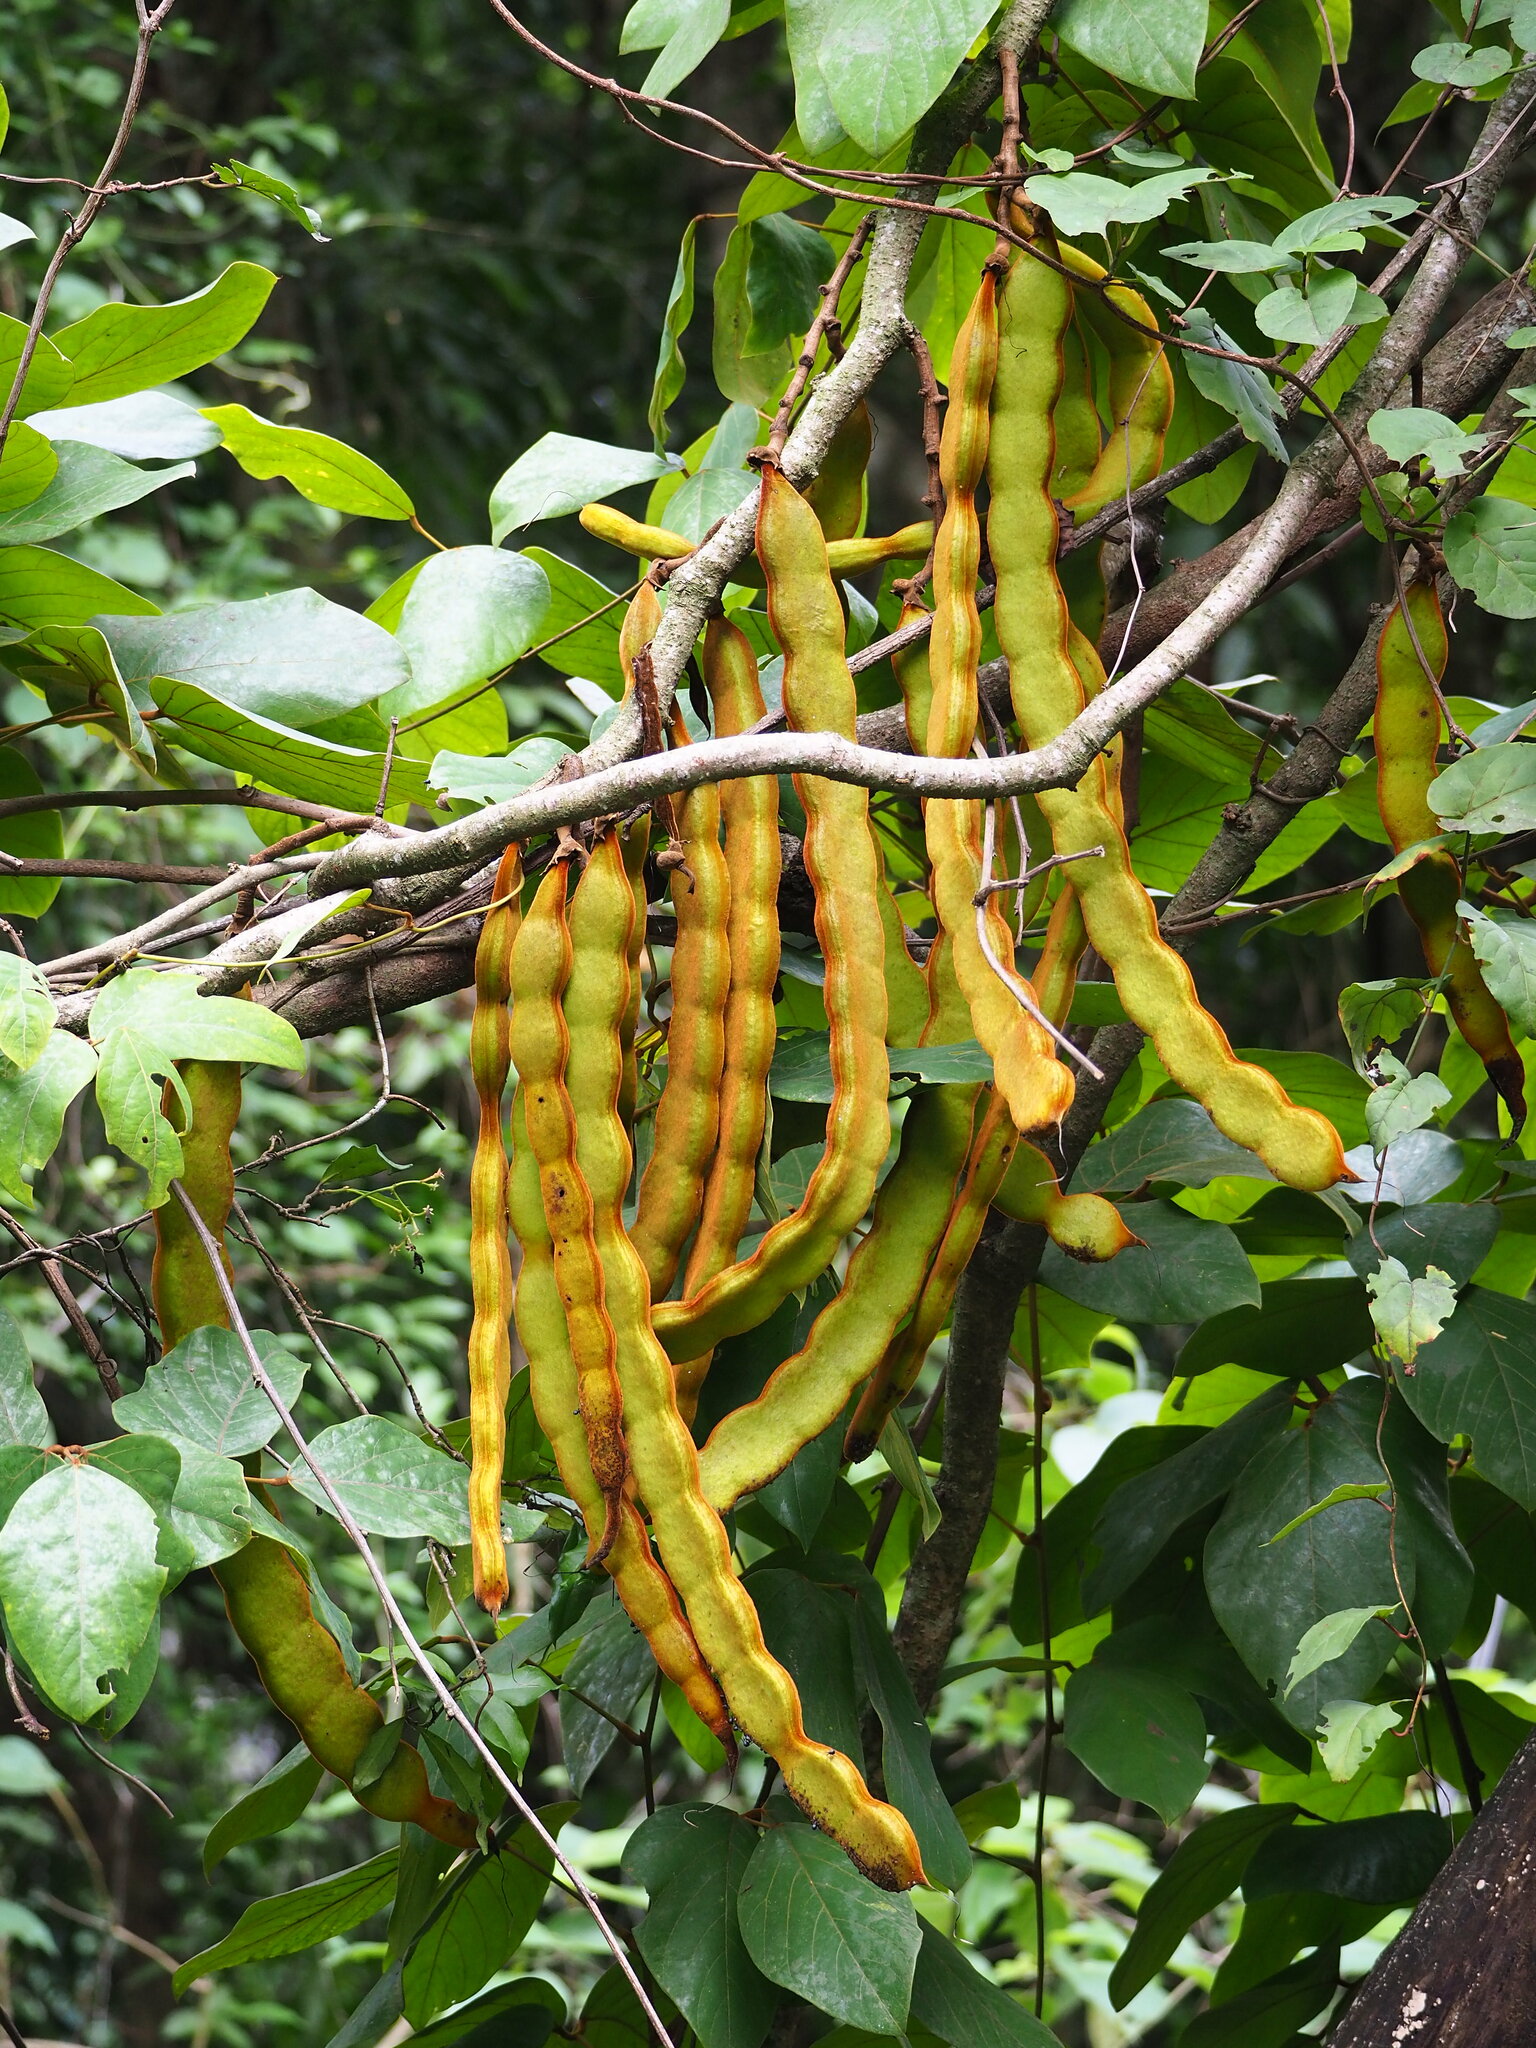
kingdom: Plantae
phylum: Tracheophyta
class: Magnoliopsida
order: Fabales
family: Fabaceae
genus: Mucuna
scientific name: Mucuna macrocarpa
